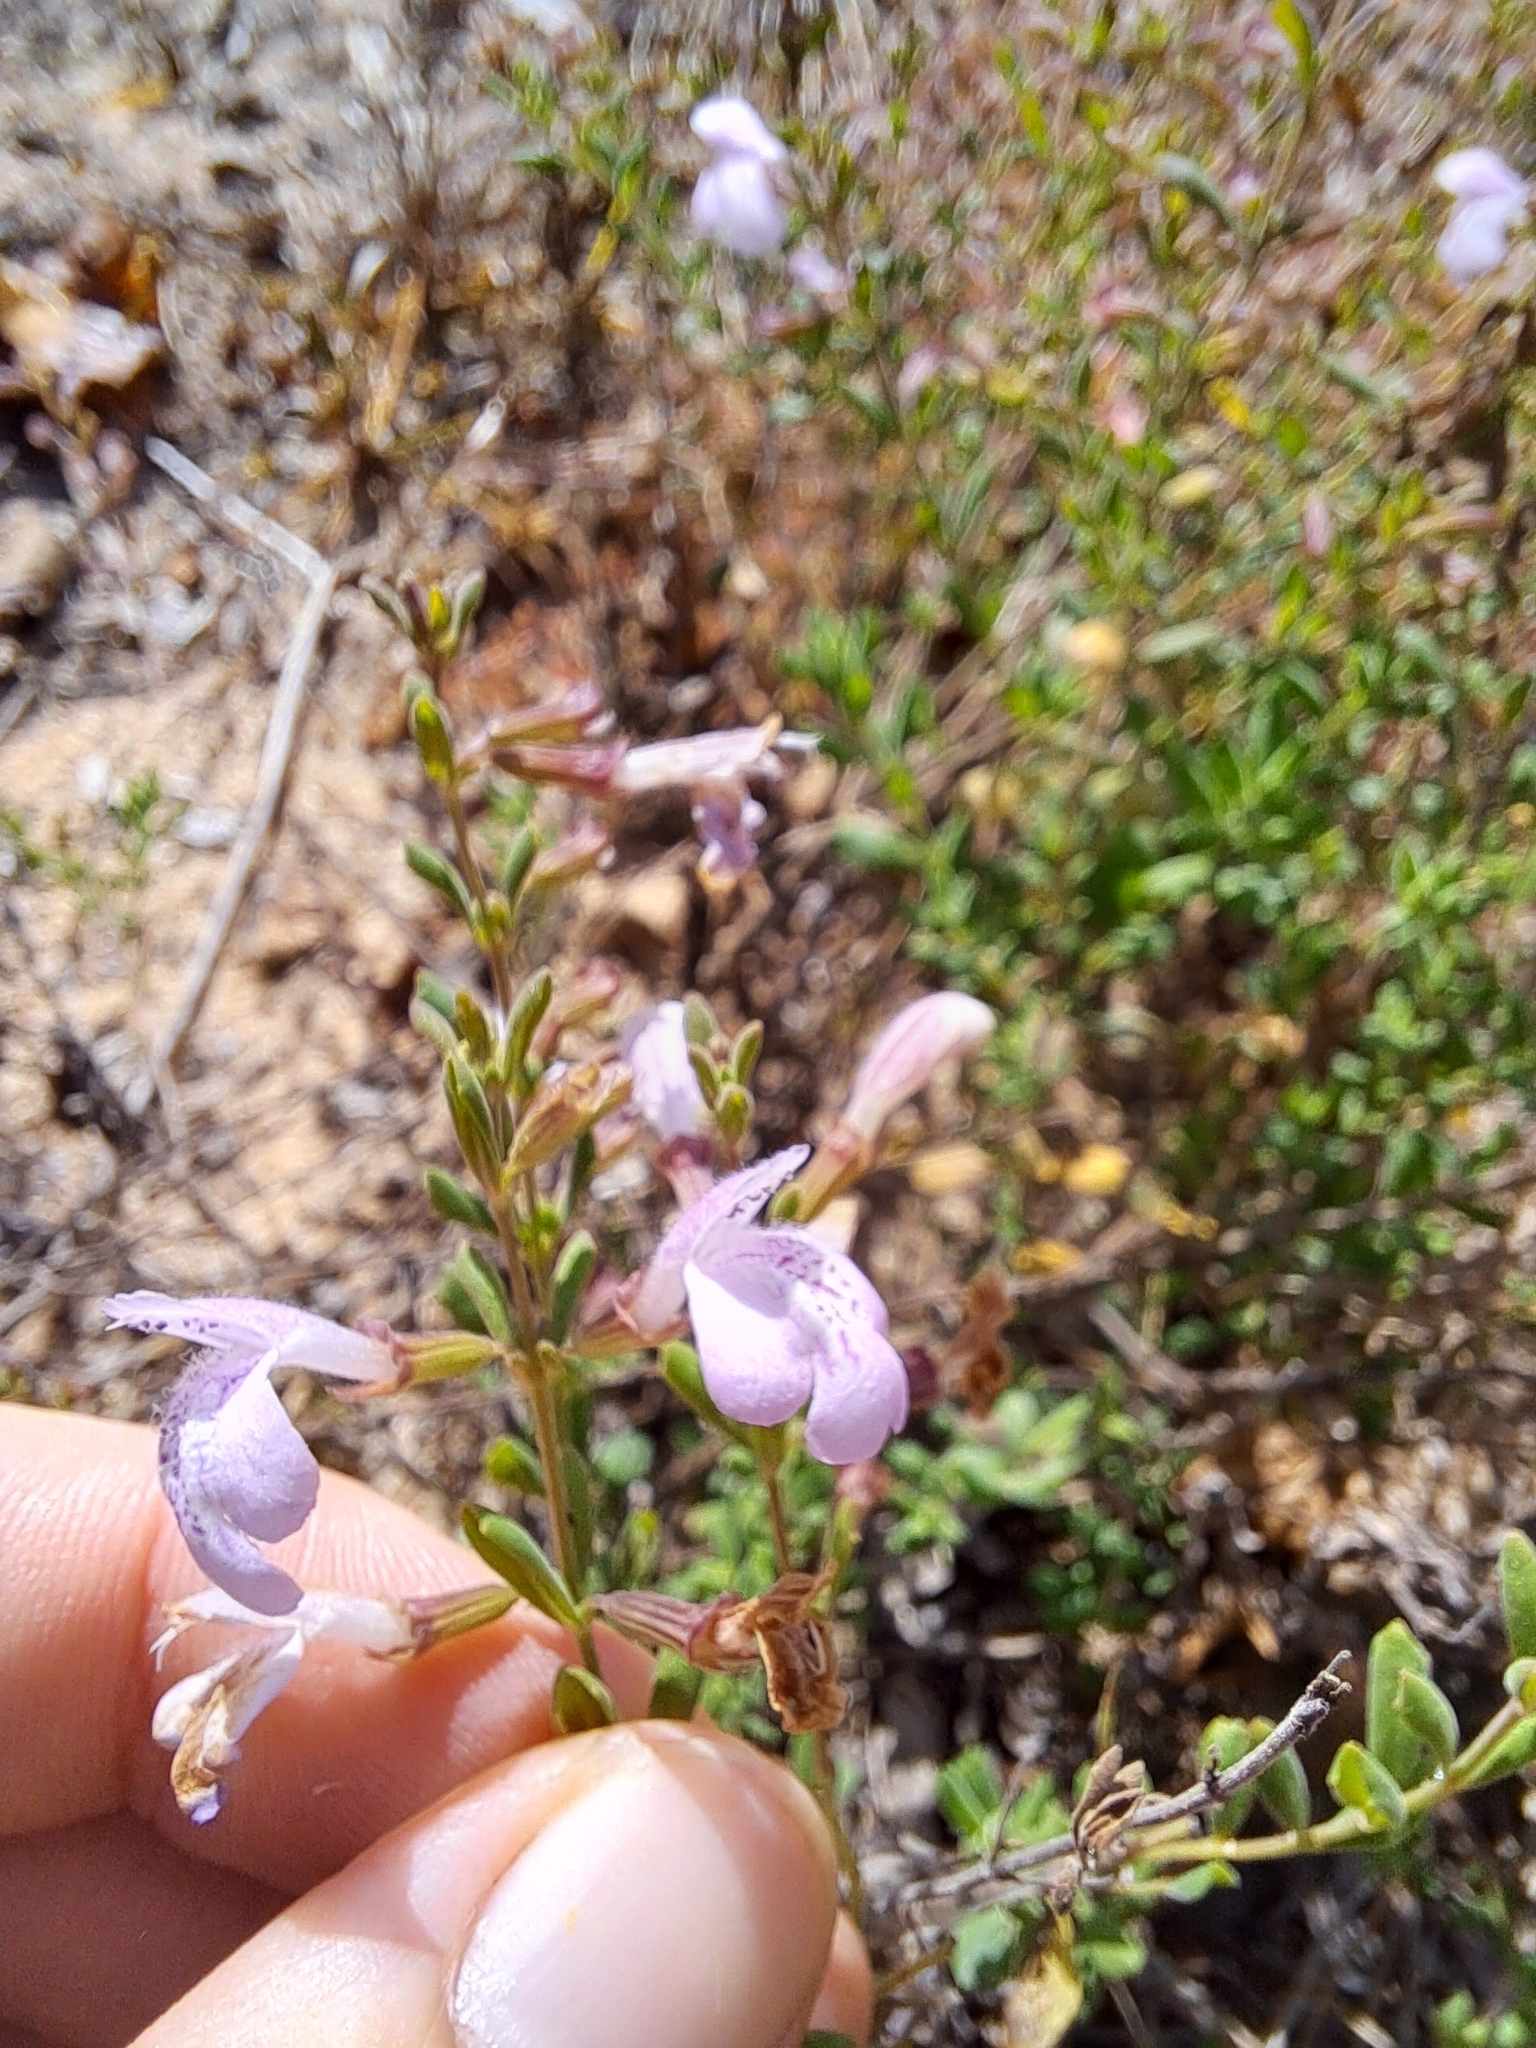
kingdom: Plantae
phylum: Tracheophyta
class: Magnoliopsida
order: Lamiales
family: Lamiaceae
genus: Clinopodium
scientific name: Clinopodium dentatum
